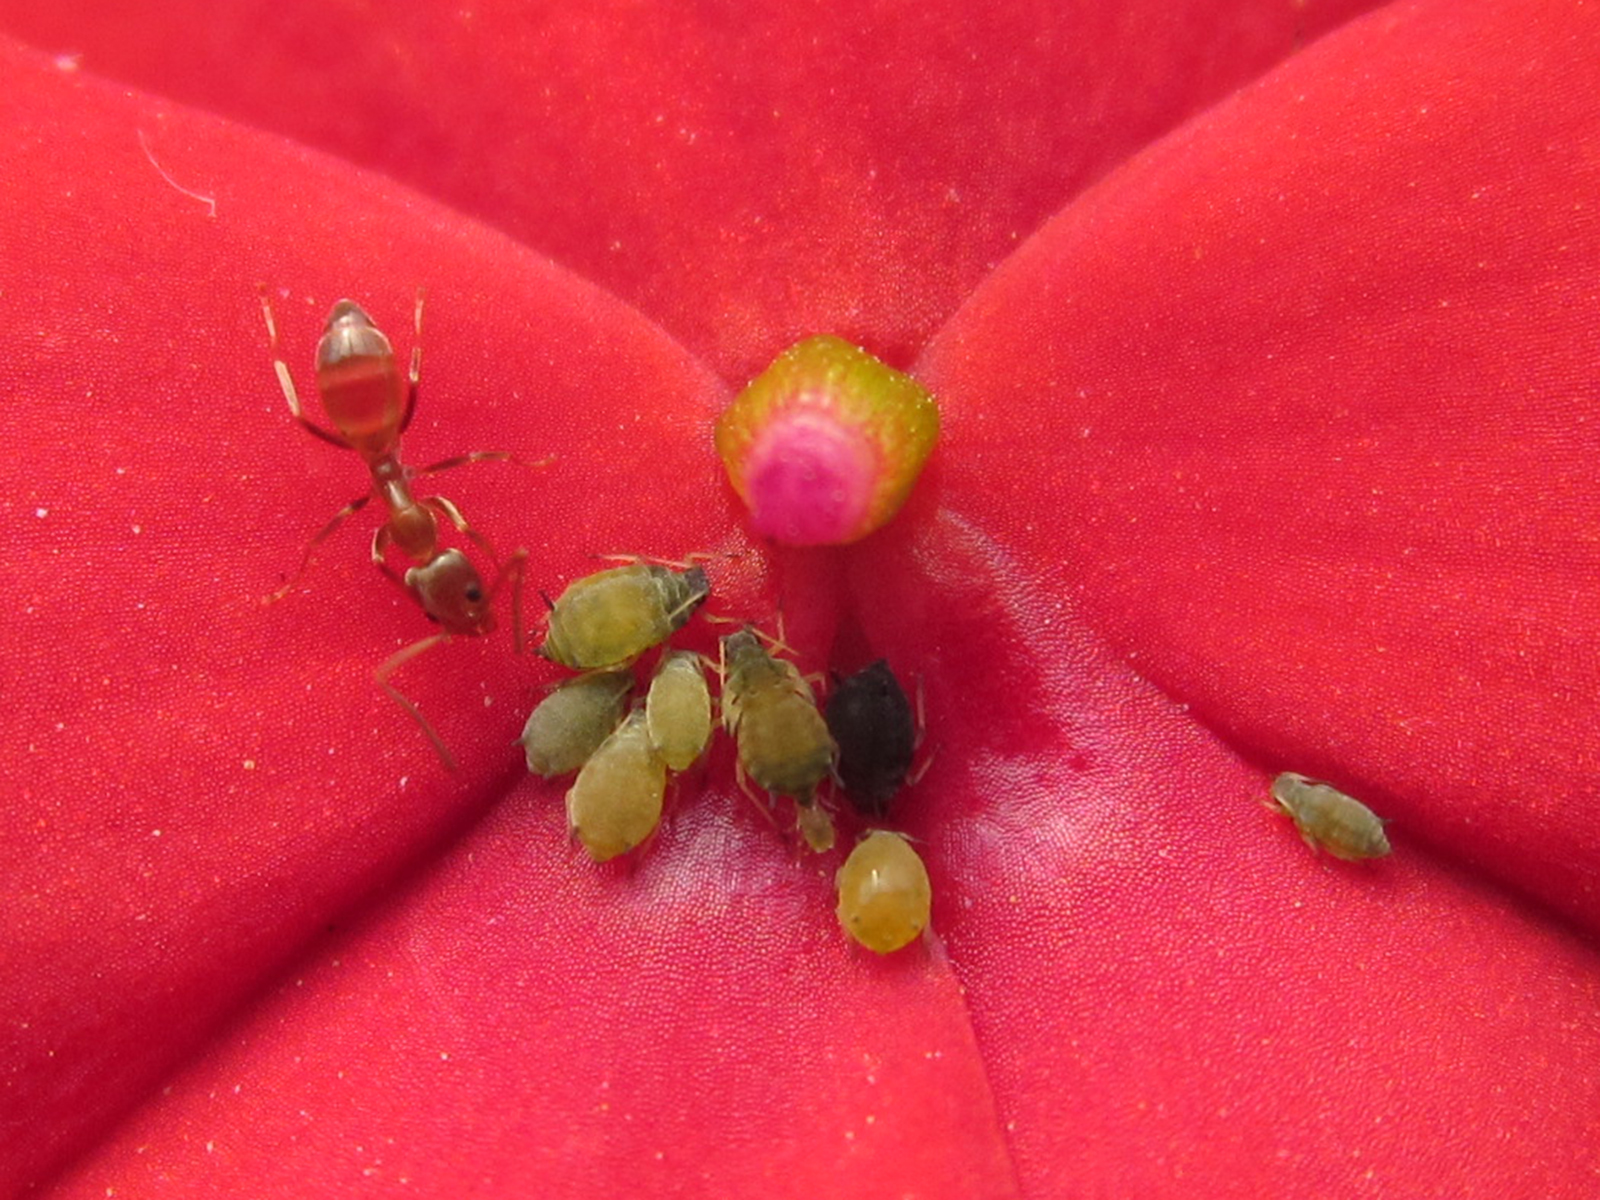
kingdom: Animalia
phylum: Arthropoda
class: Insecta
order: Hymenoptera
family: Formicidae
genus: Linepithema
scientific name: Linepithema humile
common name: Argentine ant
